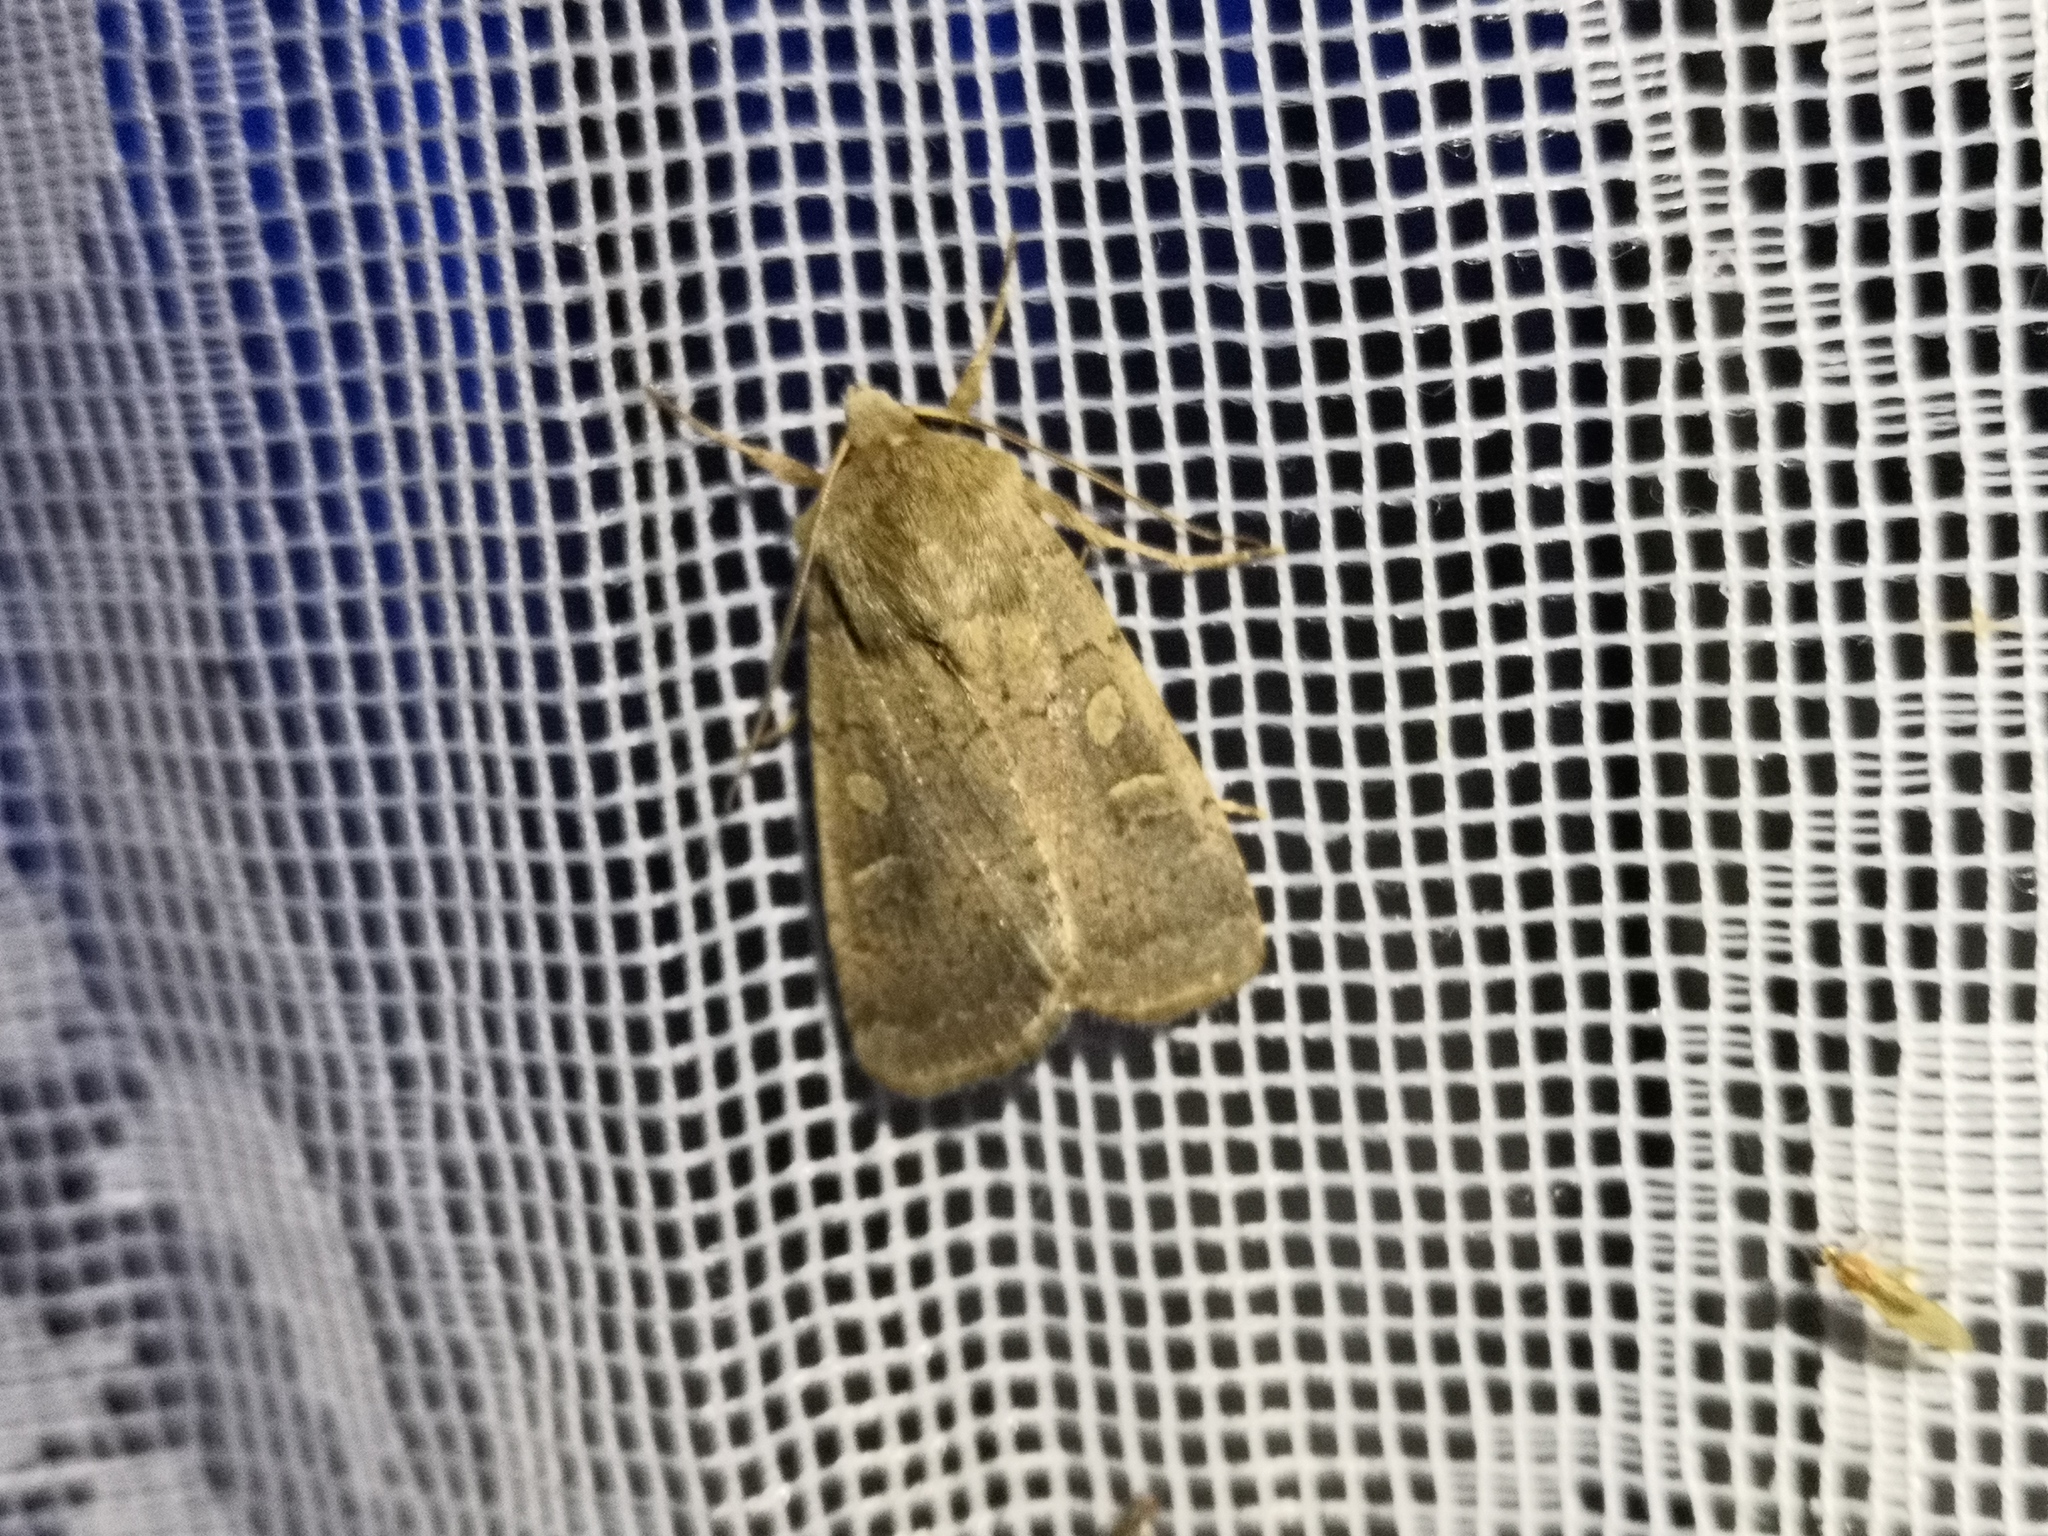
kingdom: Animalia
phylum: Arthropoda
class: Insecta
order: Lepidoptera
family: Noctuidae
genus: Xestia
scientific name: Xestia xanthographa
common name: Square-spot rustic
